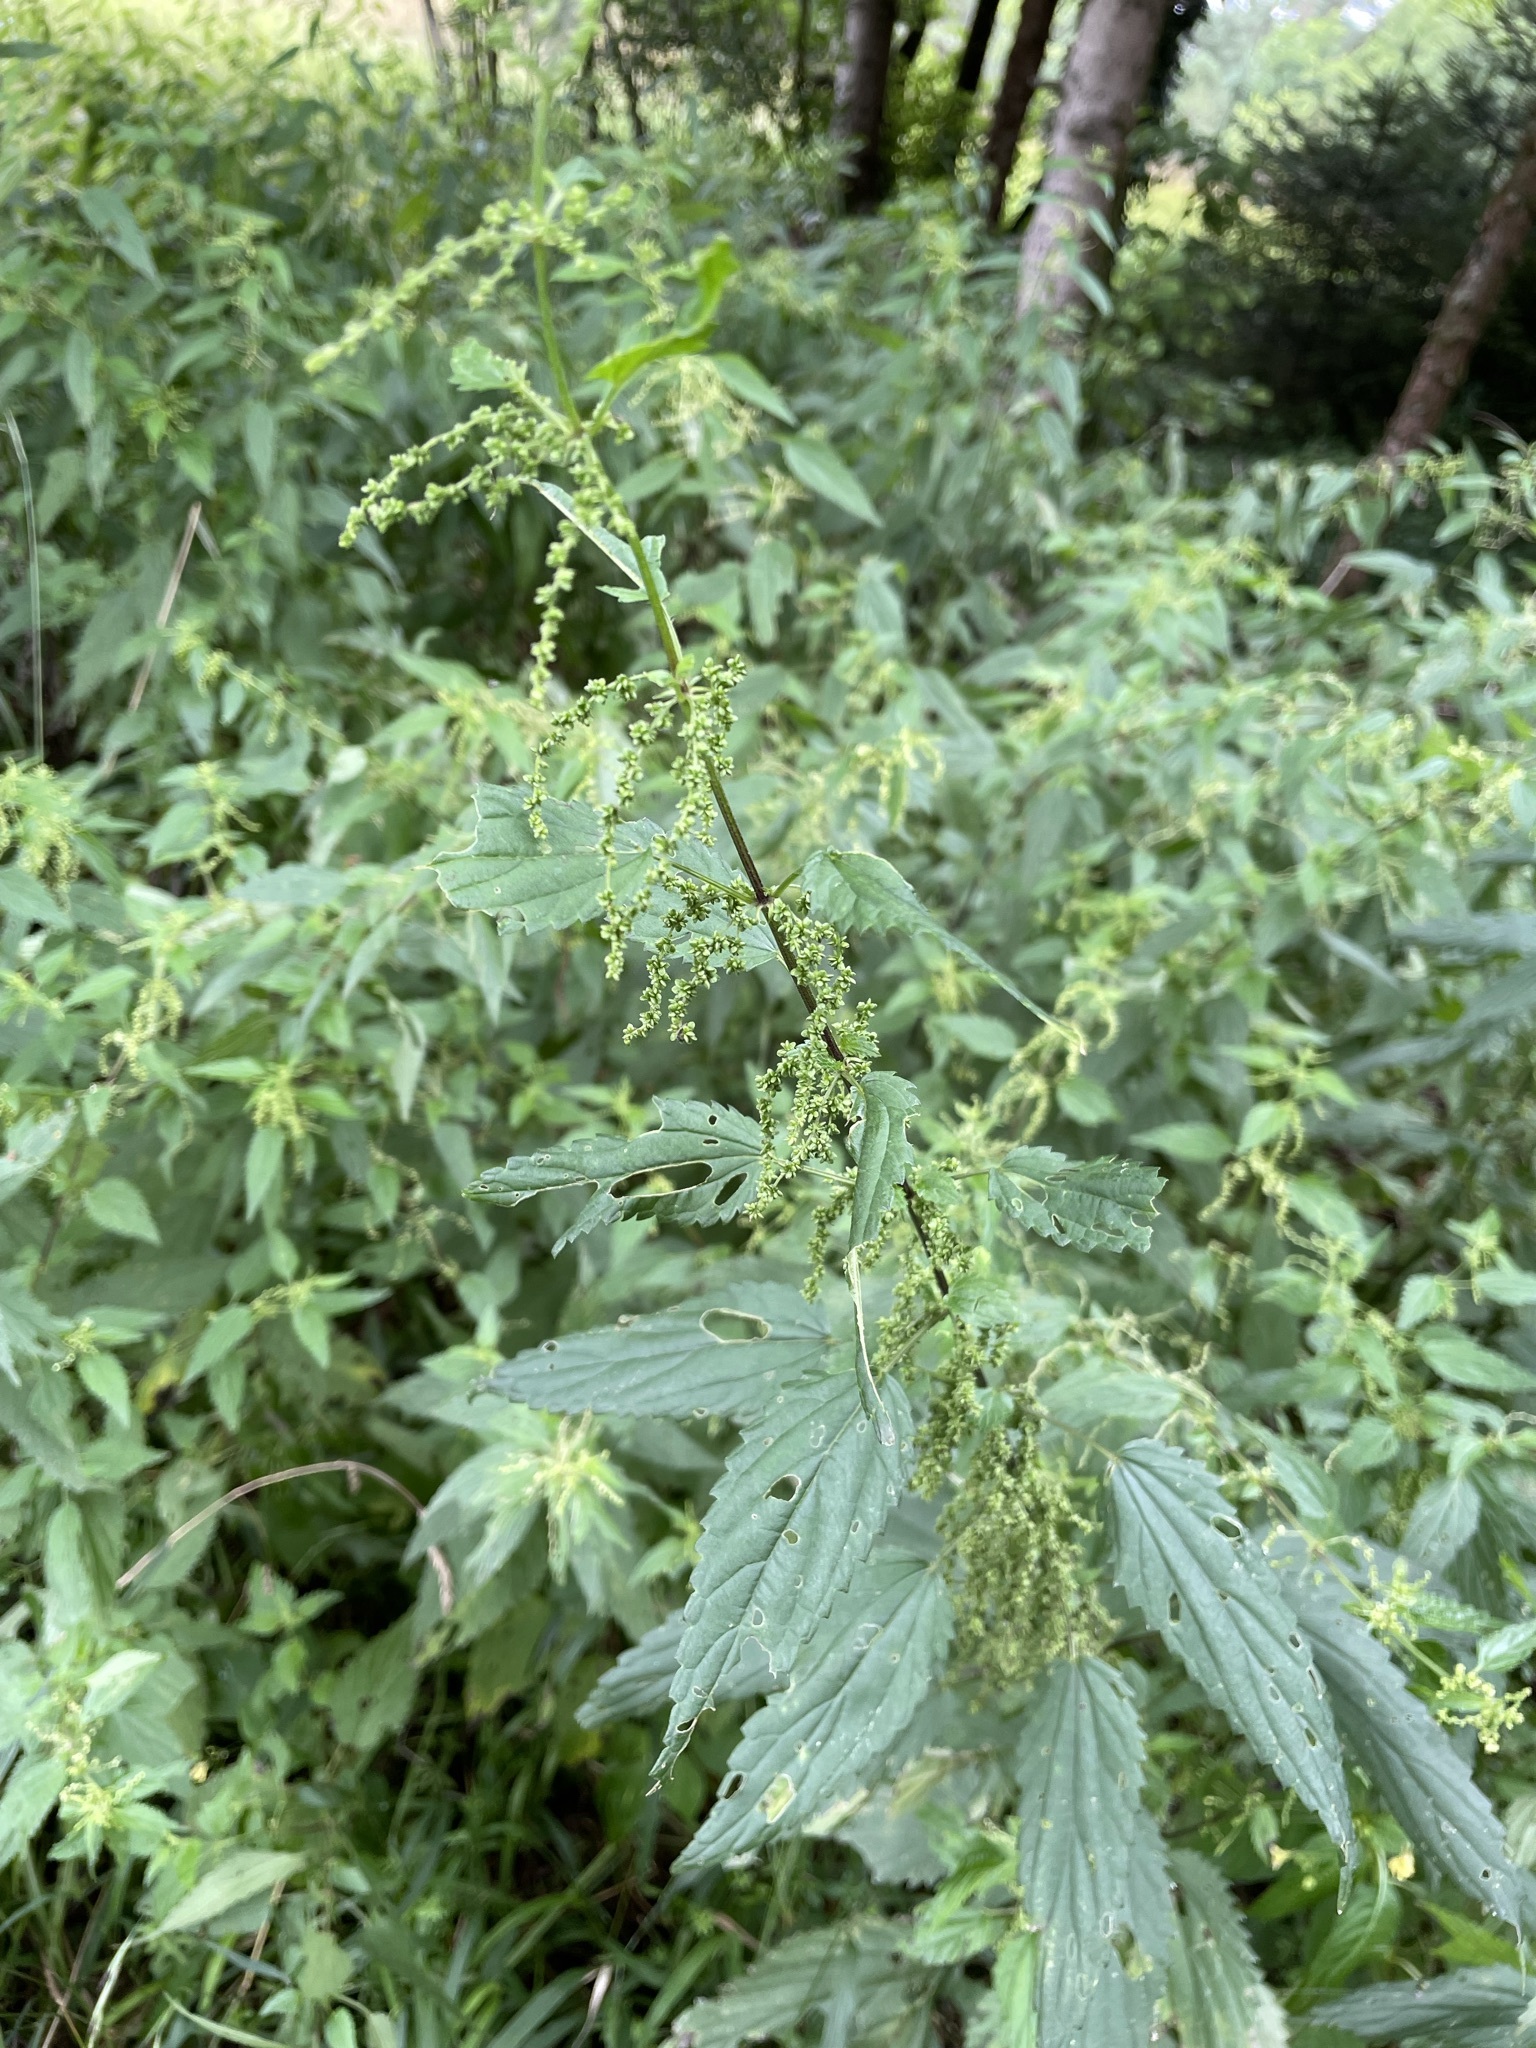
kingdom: Plantae
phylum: Tracheophyta
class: Magnoliopsida
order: Rosales
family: Urticaceae
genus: Urtica
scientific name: Urtica dioica
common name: Common nettle
